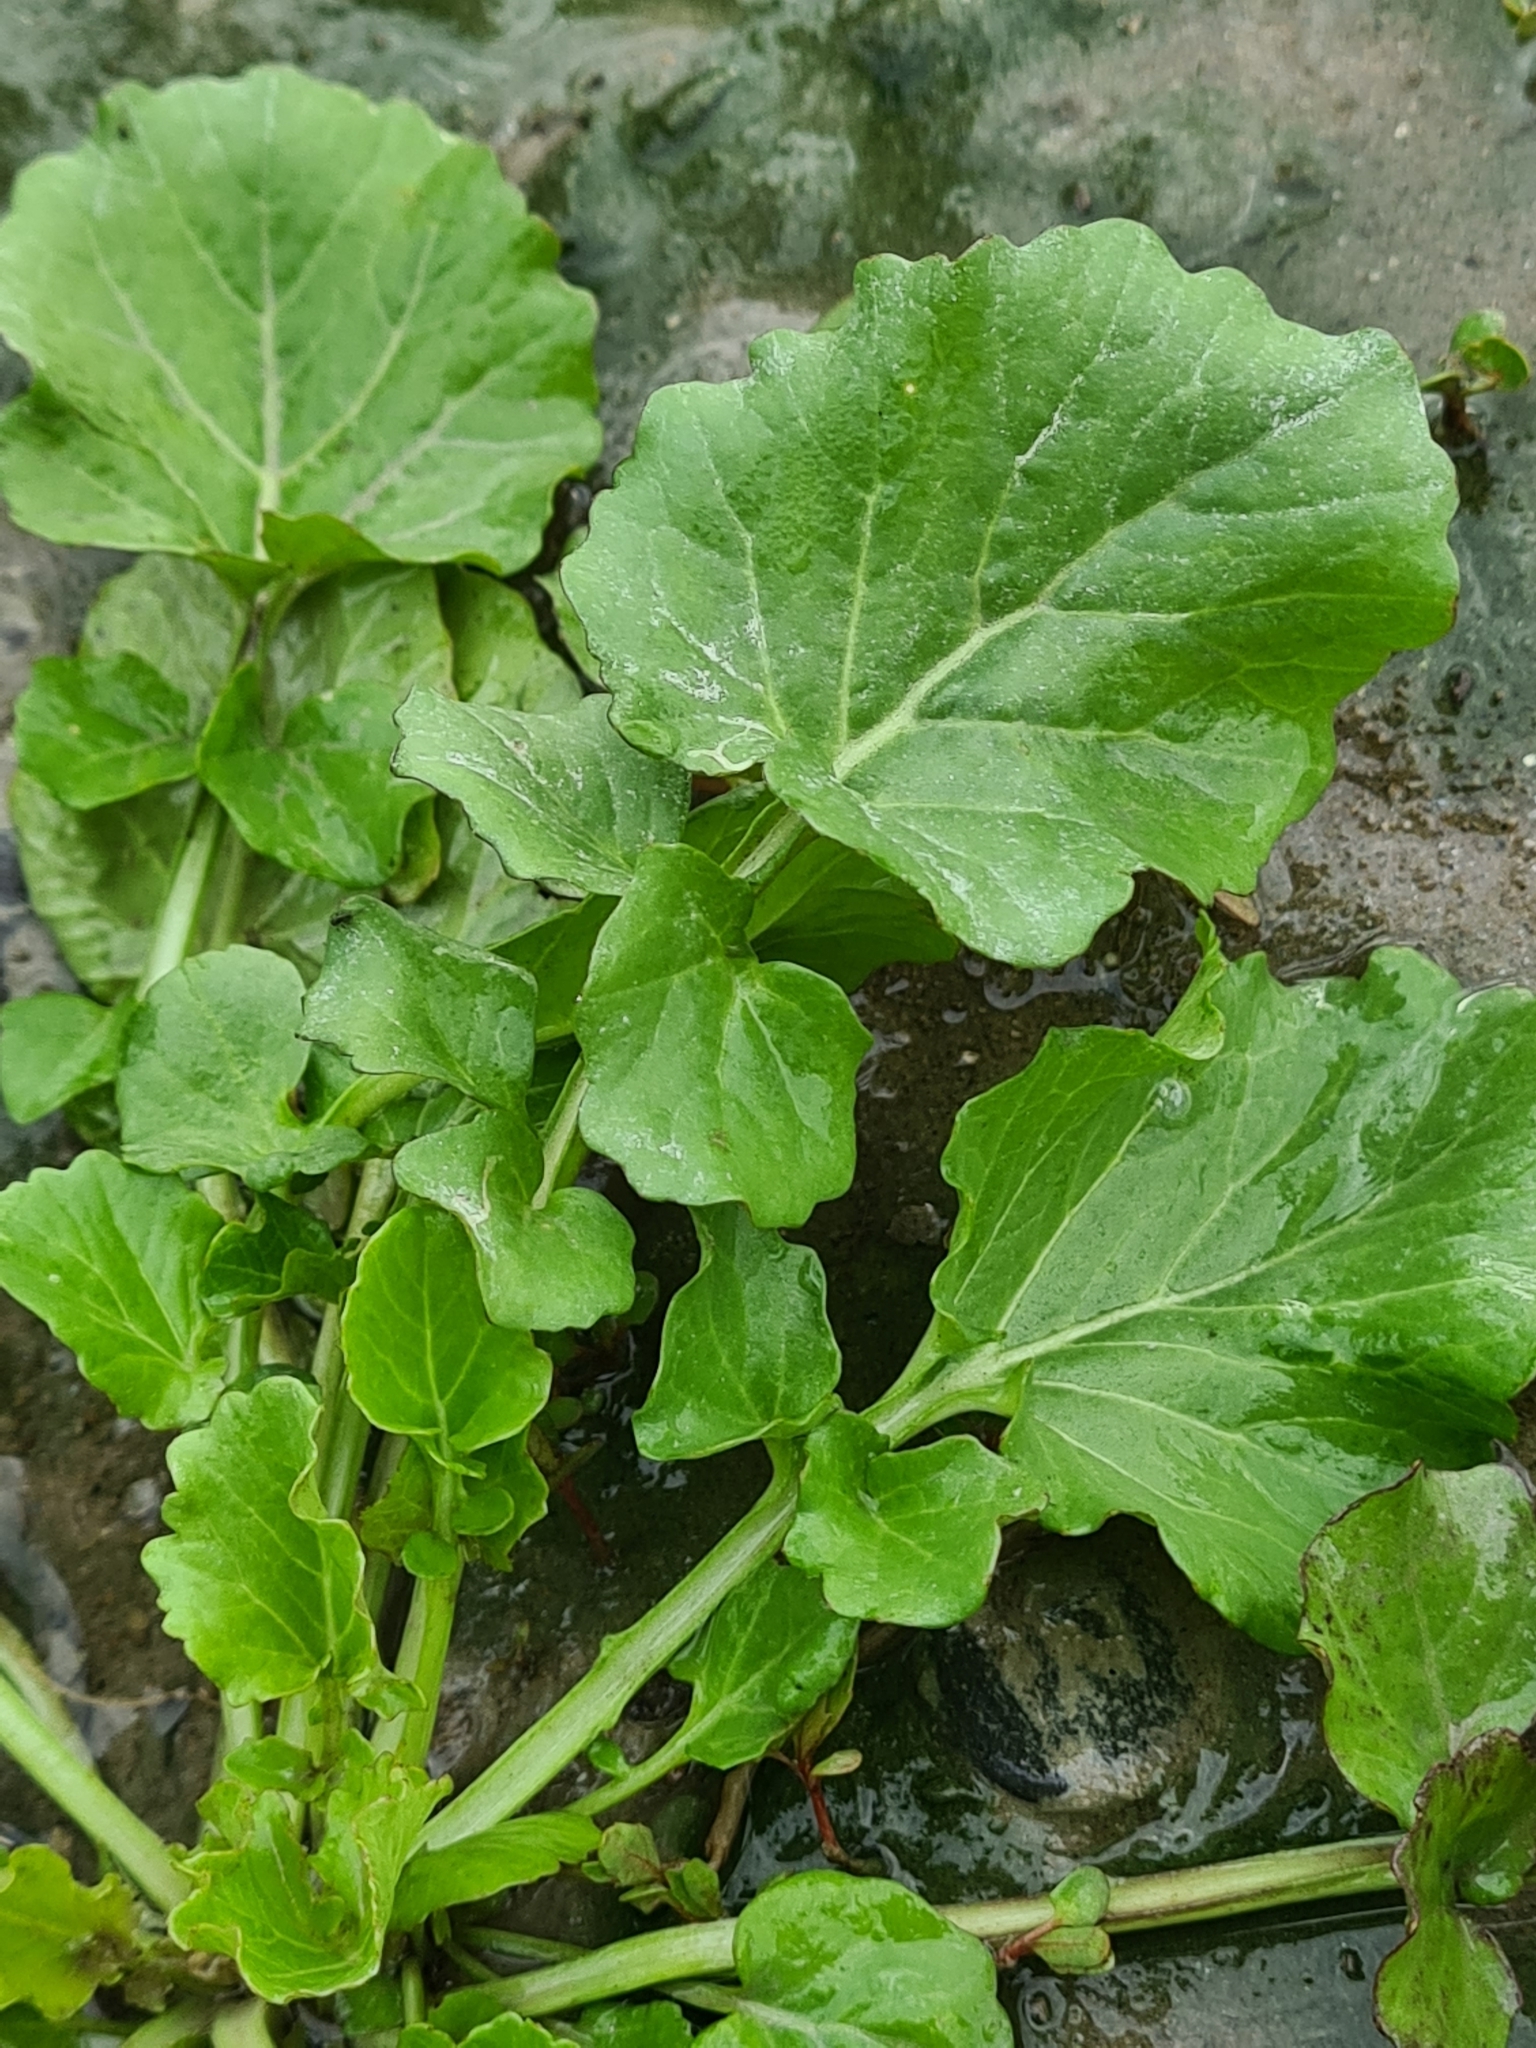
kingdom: Plantae
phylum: Tracheophyta
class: Magnoliopsida
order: Brassicales
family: Brassicaceae
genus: Barbarea
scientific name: Barbarea vulgaris
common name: Cressy-greens
